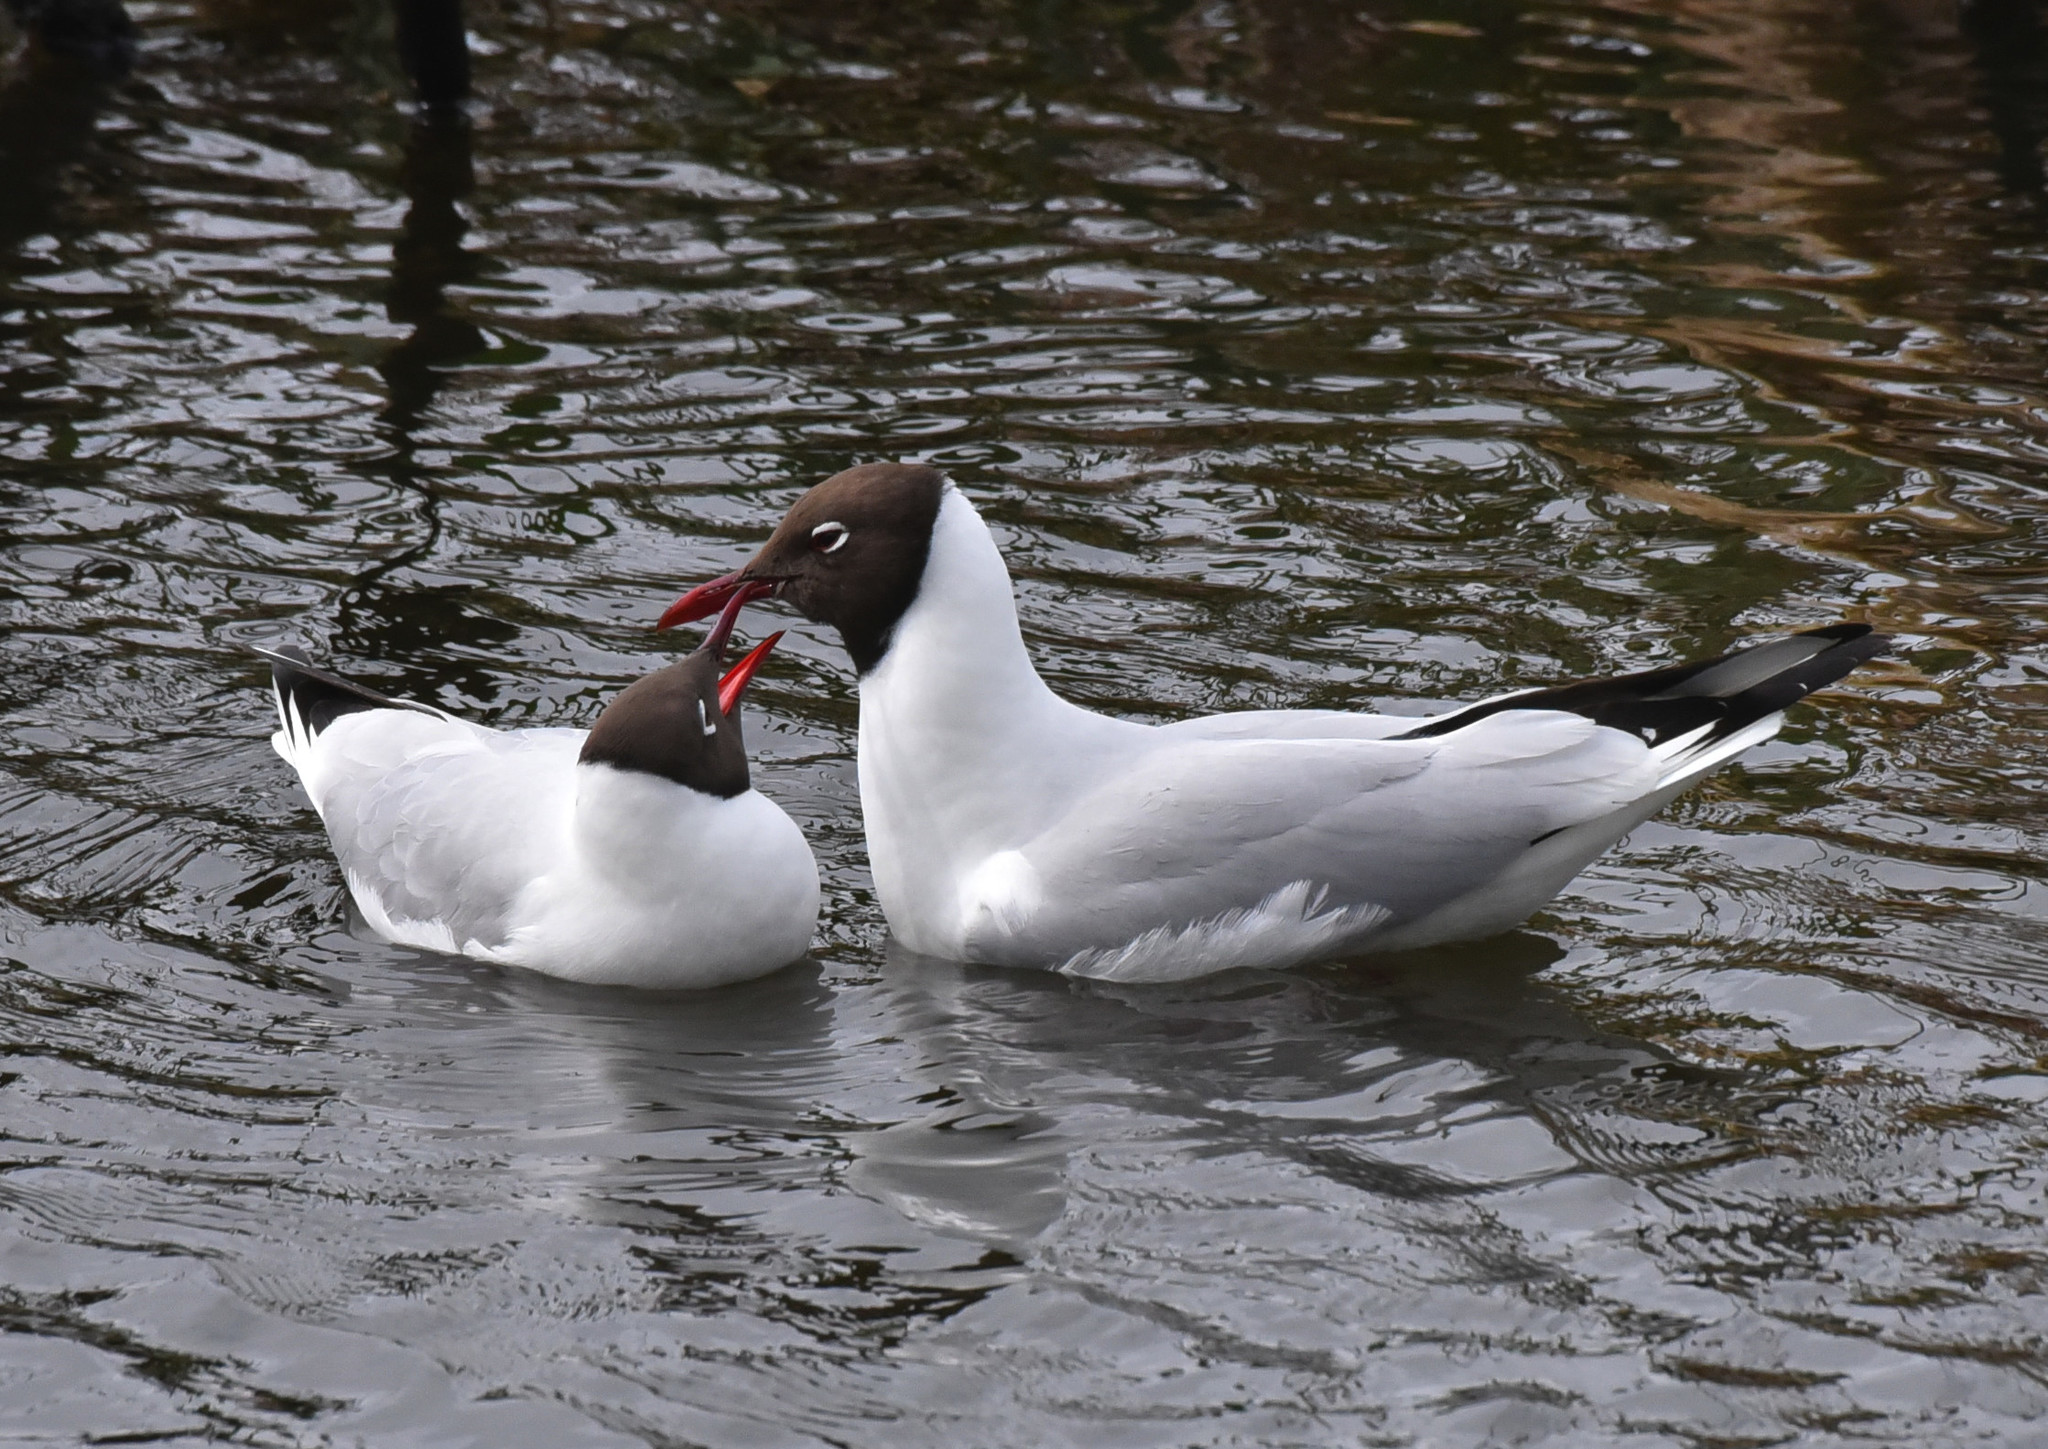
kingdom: Animalia
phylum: Chordata
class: Aves
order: Charadriiformes
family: Laridae
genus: Chroicocephalus
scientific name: Chroicocephalus ridibundus
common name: Black-headed gull
